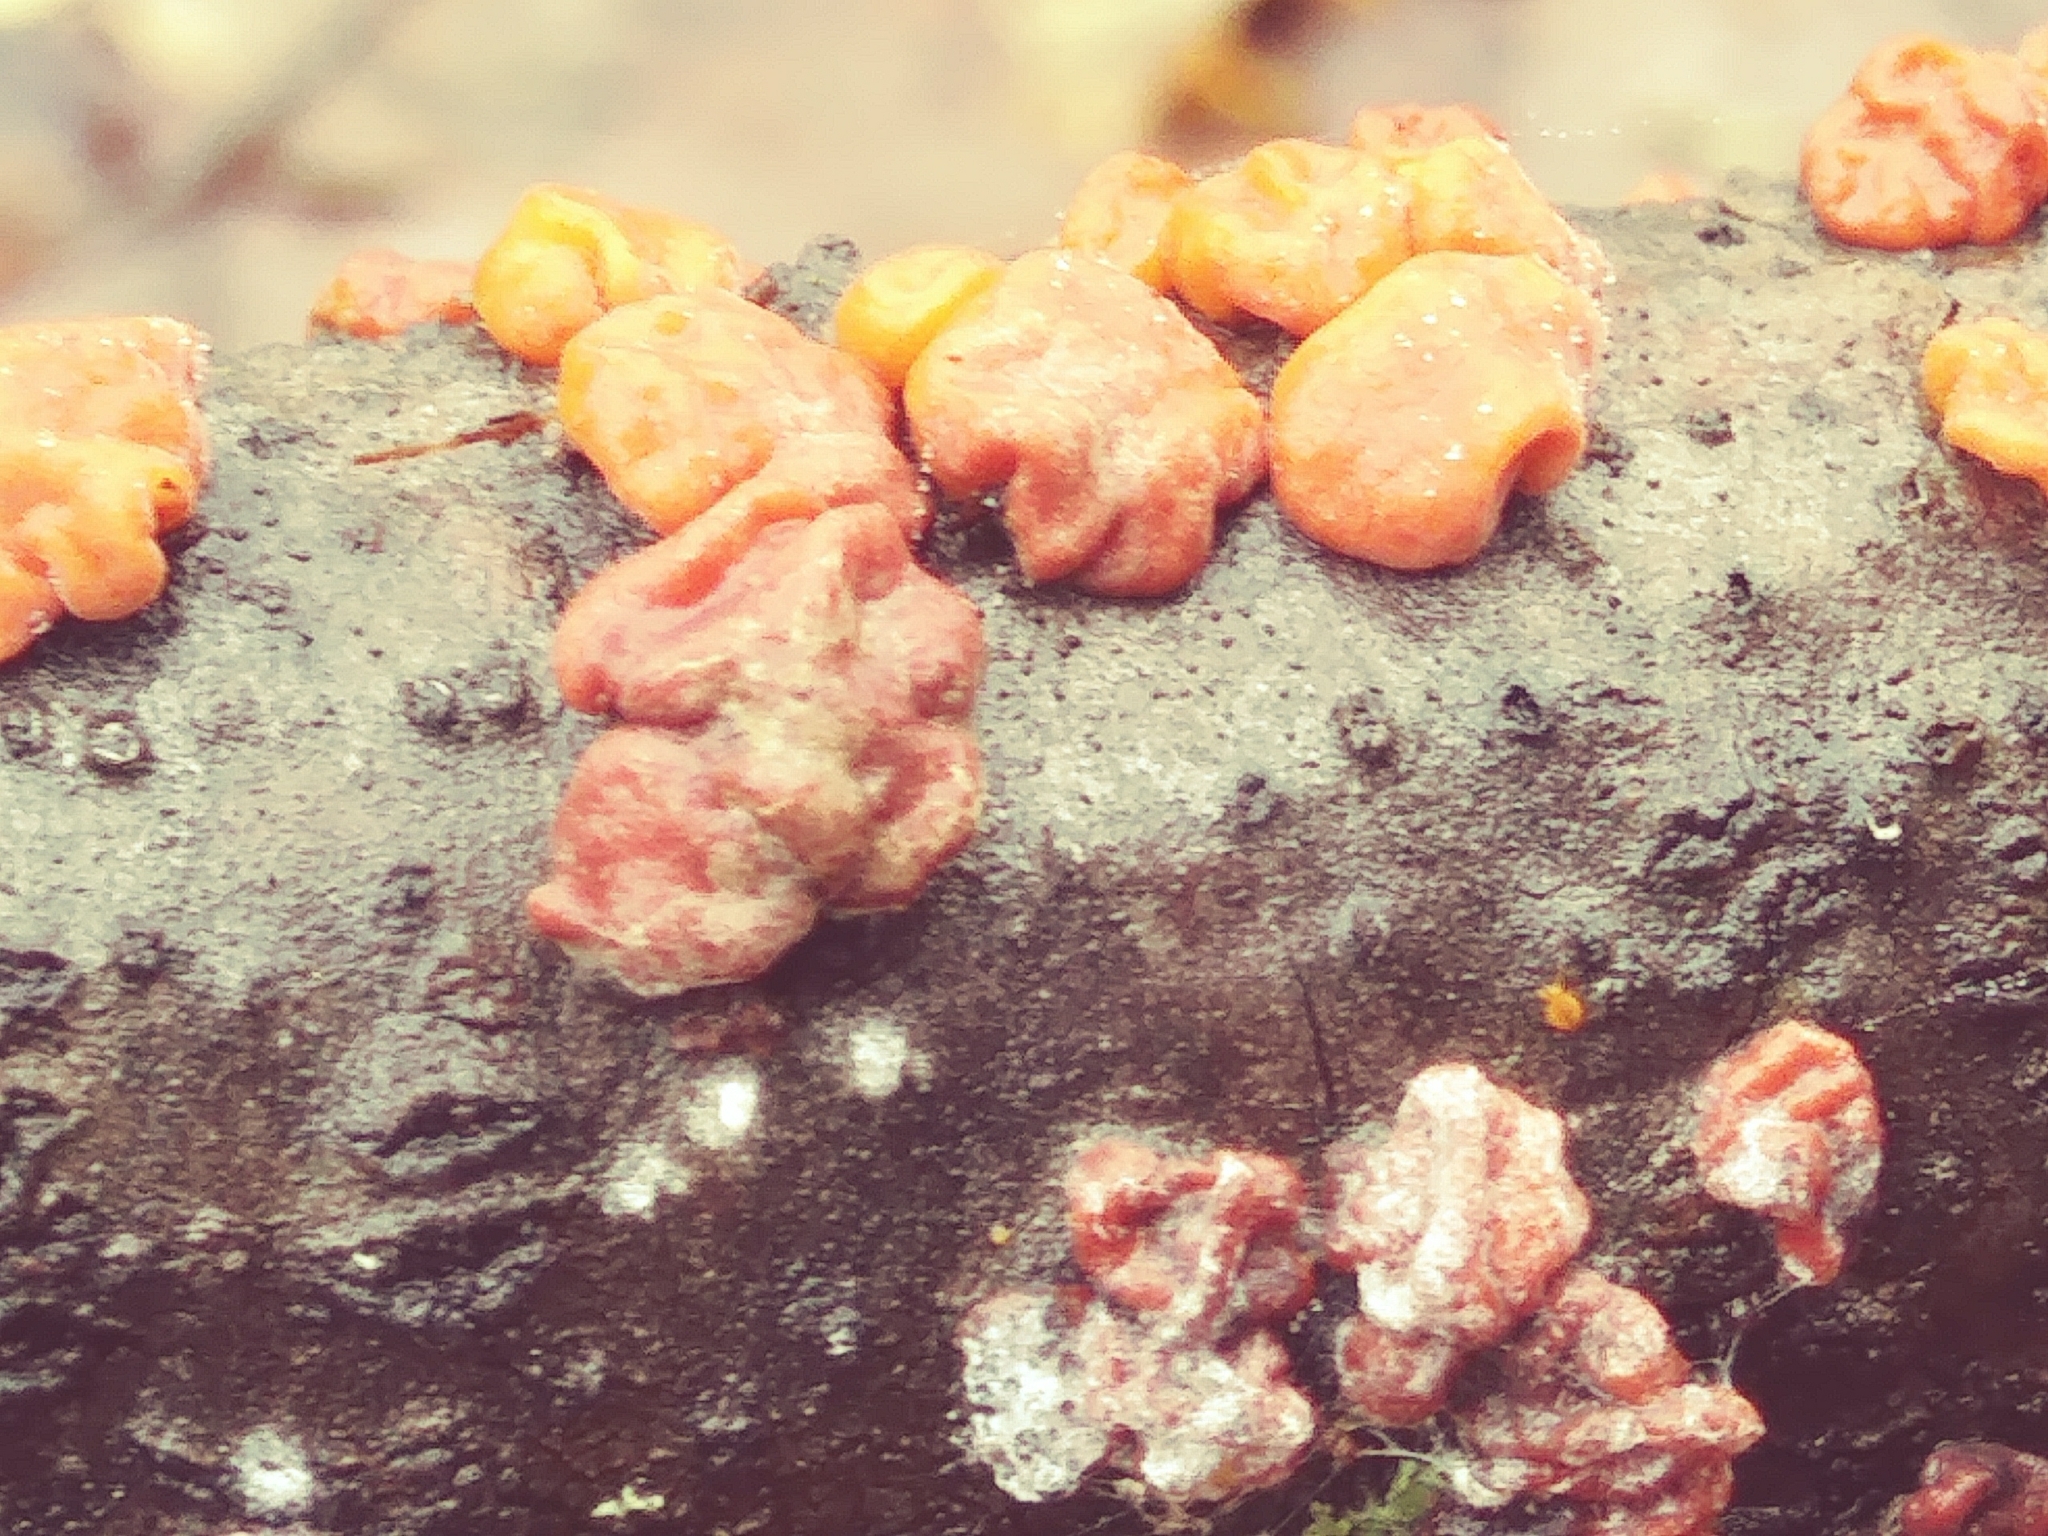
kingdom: Fungi
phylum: Basidiomycota
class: Agaricomycetes
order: Russulales
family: Peniophoraceae
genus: Peniophora
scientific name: Peniophora rufa
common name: Red tree brain fungus
